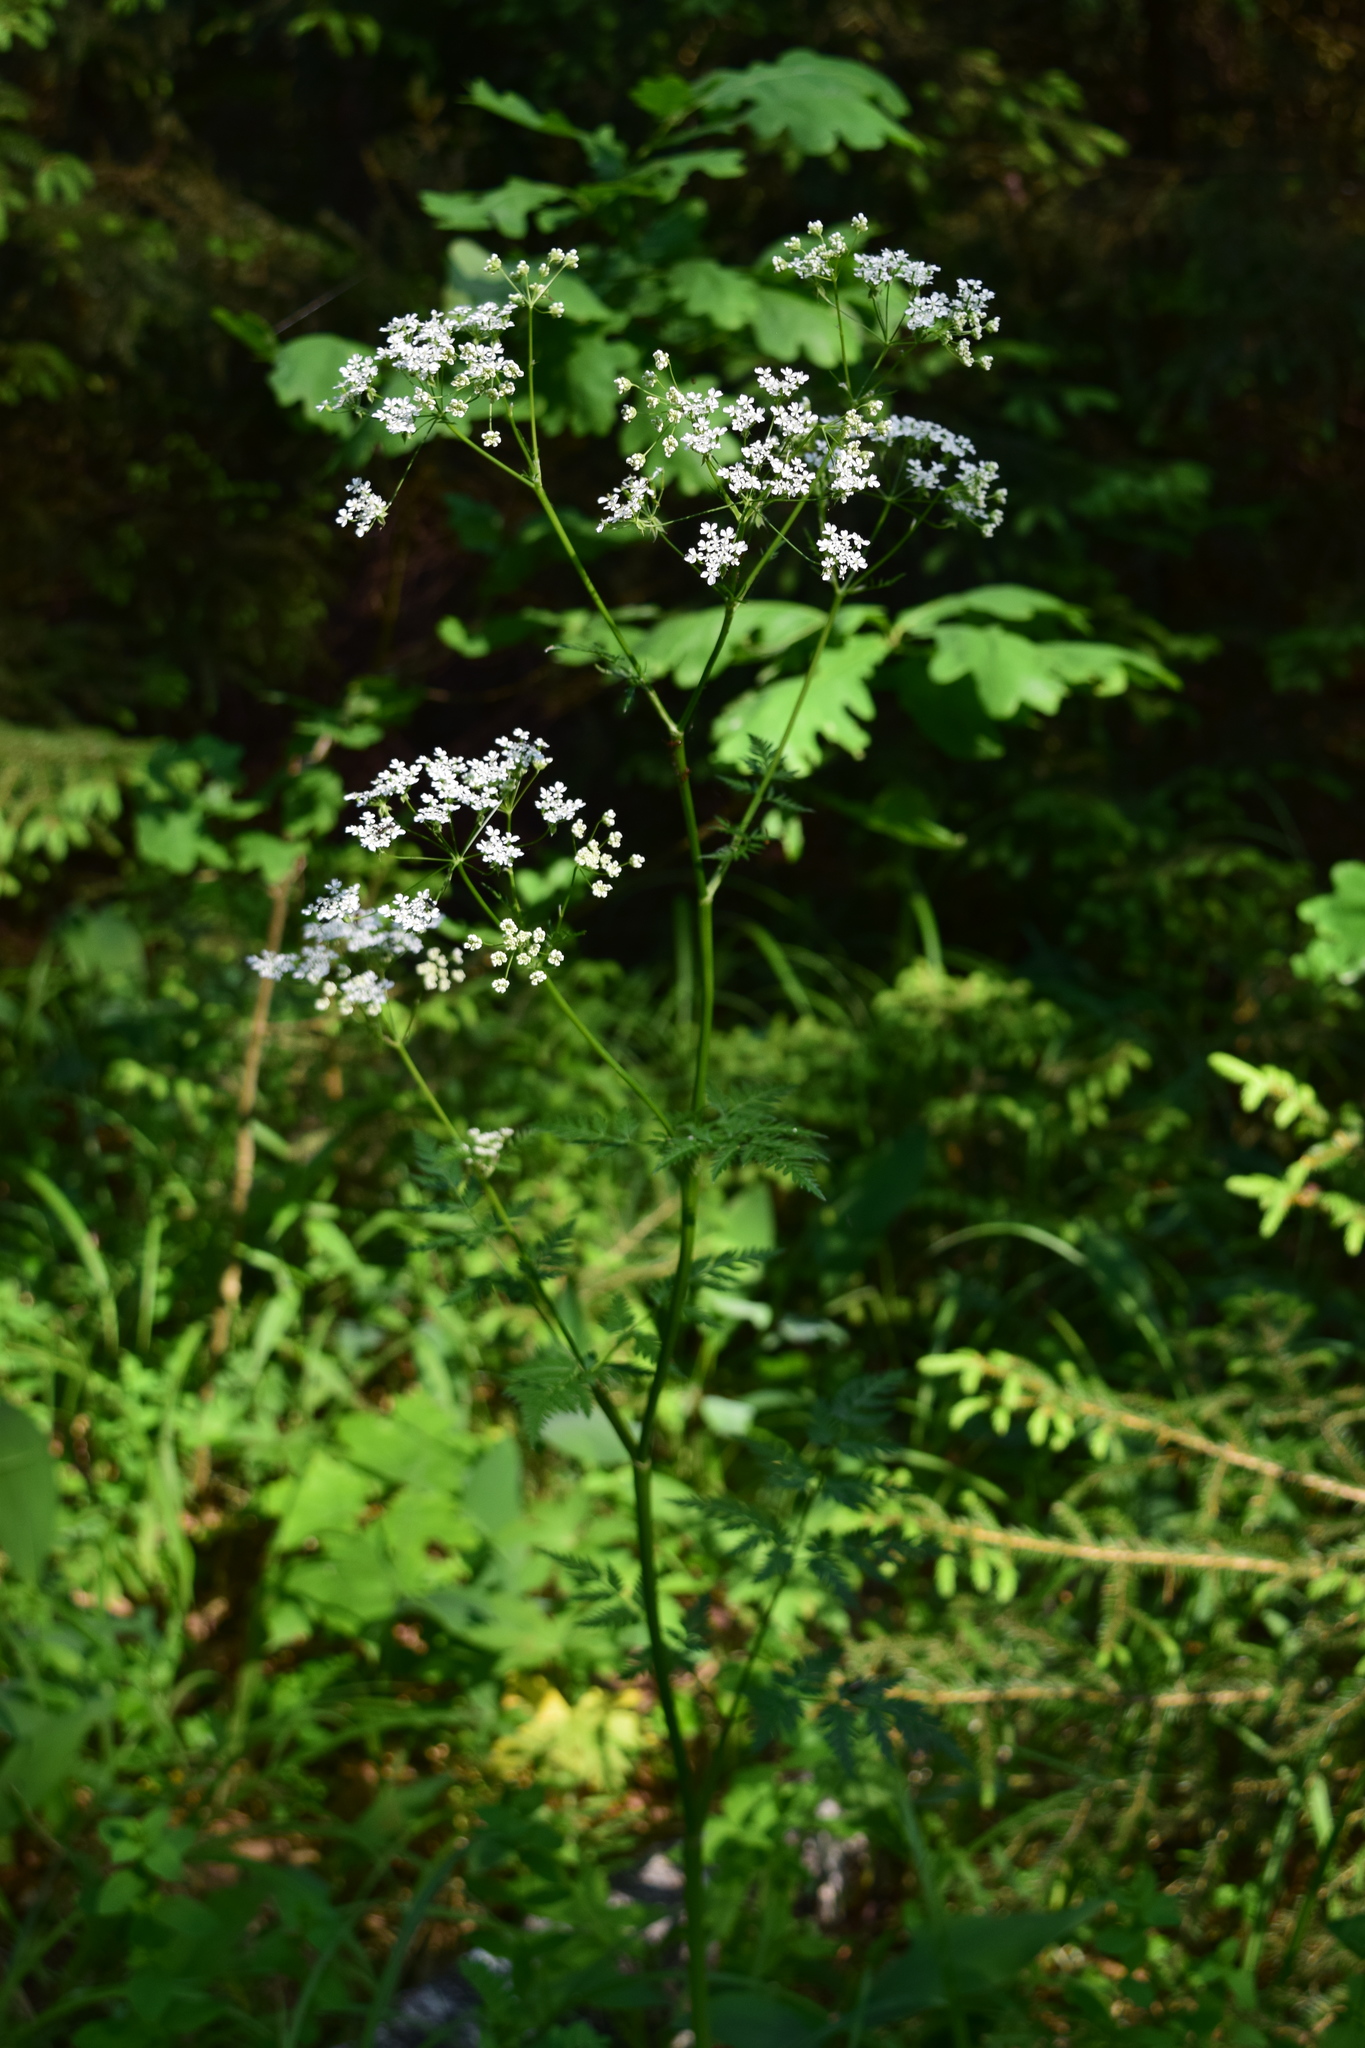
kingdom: Plantae
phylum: Tracheophyta
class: Magnoliopsida
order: Apiales
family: Apiaceae
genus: Anthriscus
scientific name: Anthriscus sylvestris
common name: Cow parsley
